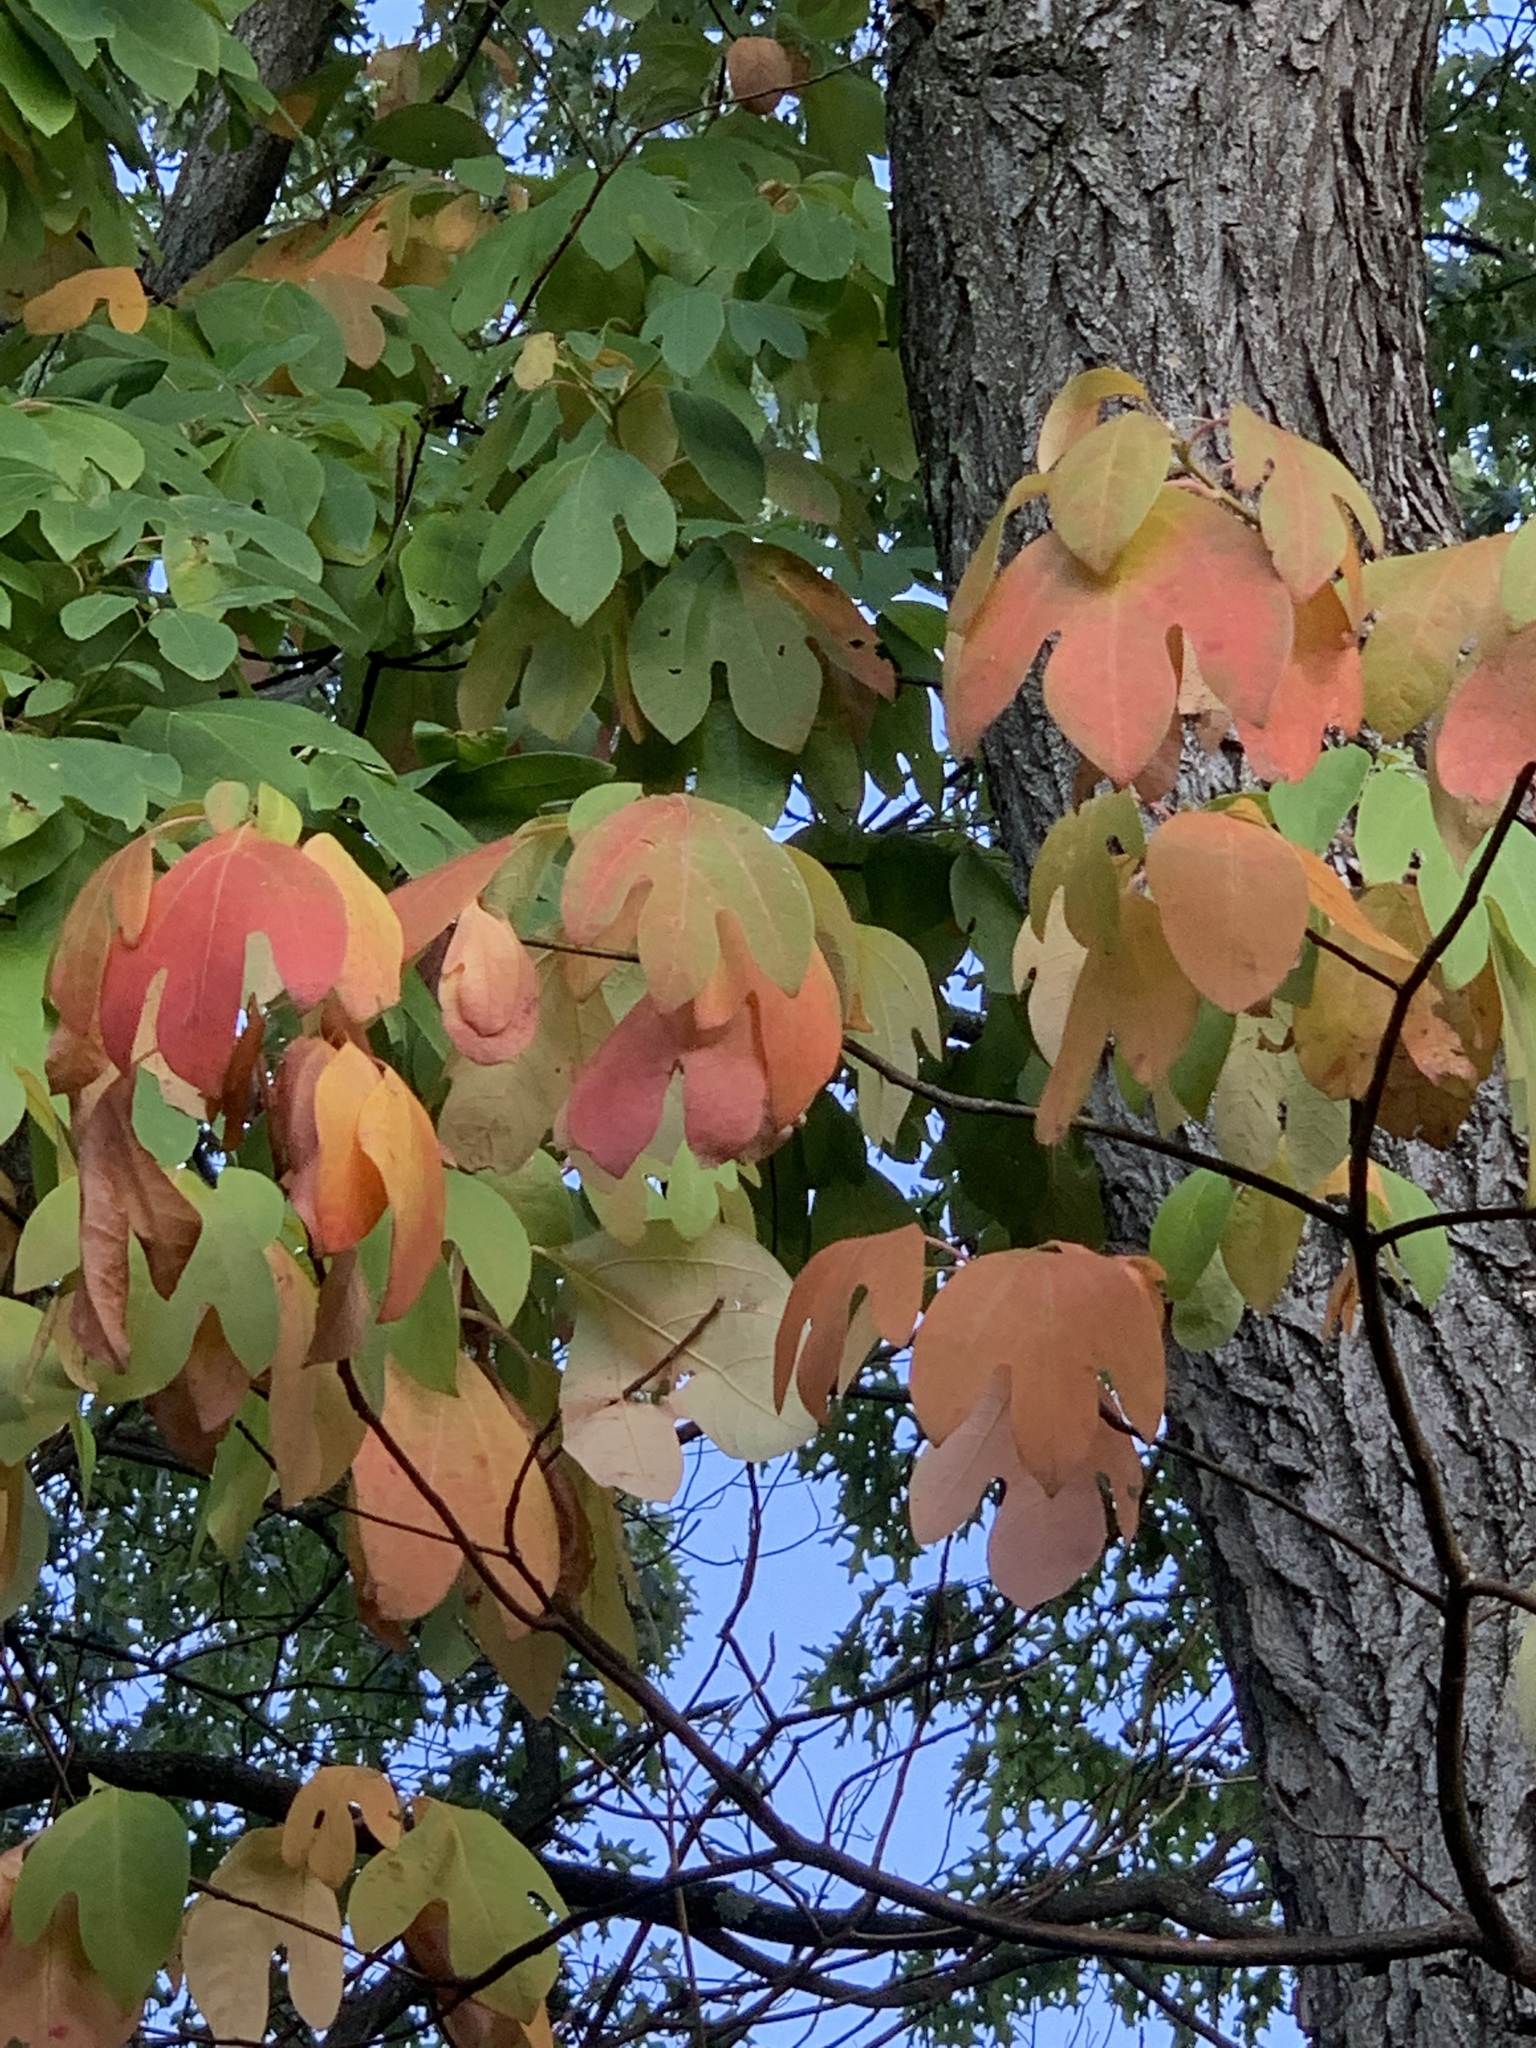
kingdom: Plantae
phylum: Tracheophyta
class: Magnoliopsida
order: Laurales
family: Lauraceae
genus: Sassafras
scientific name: Sassafras albidum
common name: Sassafras
